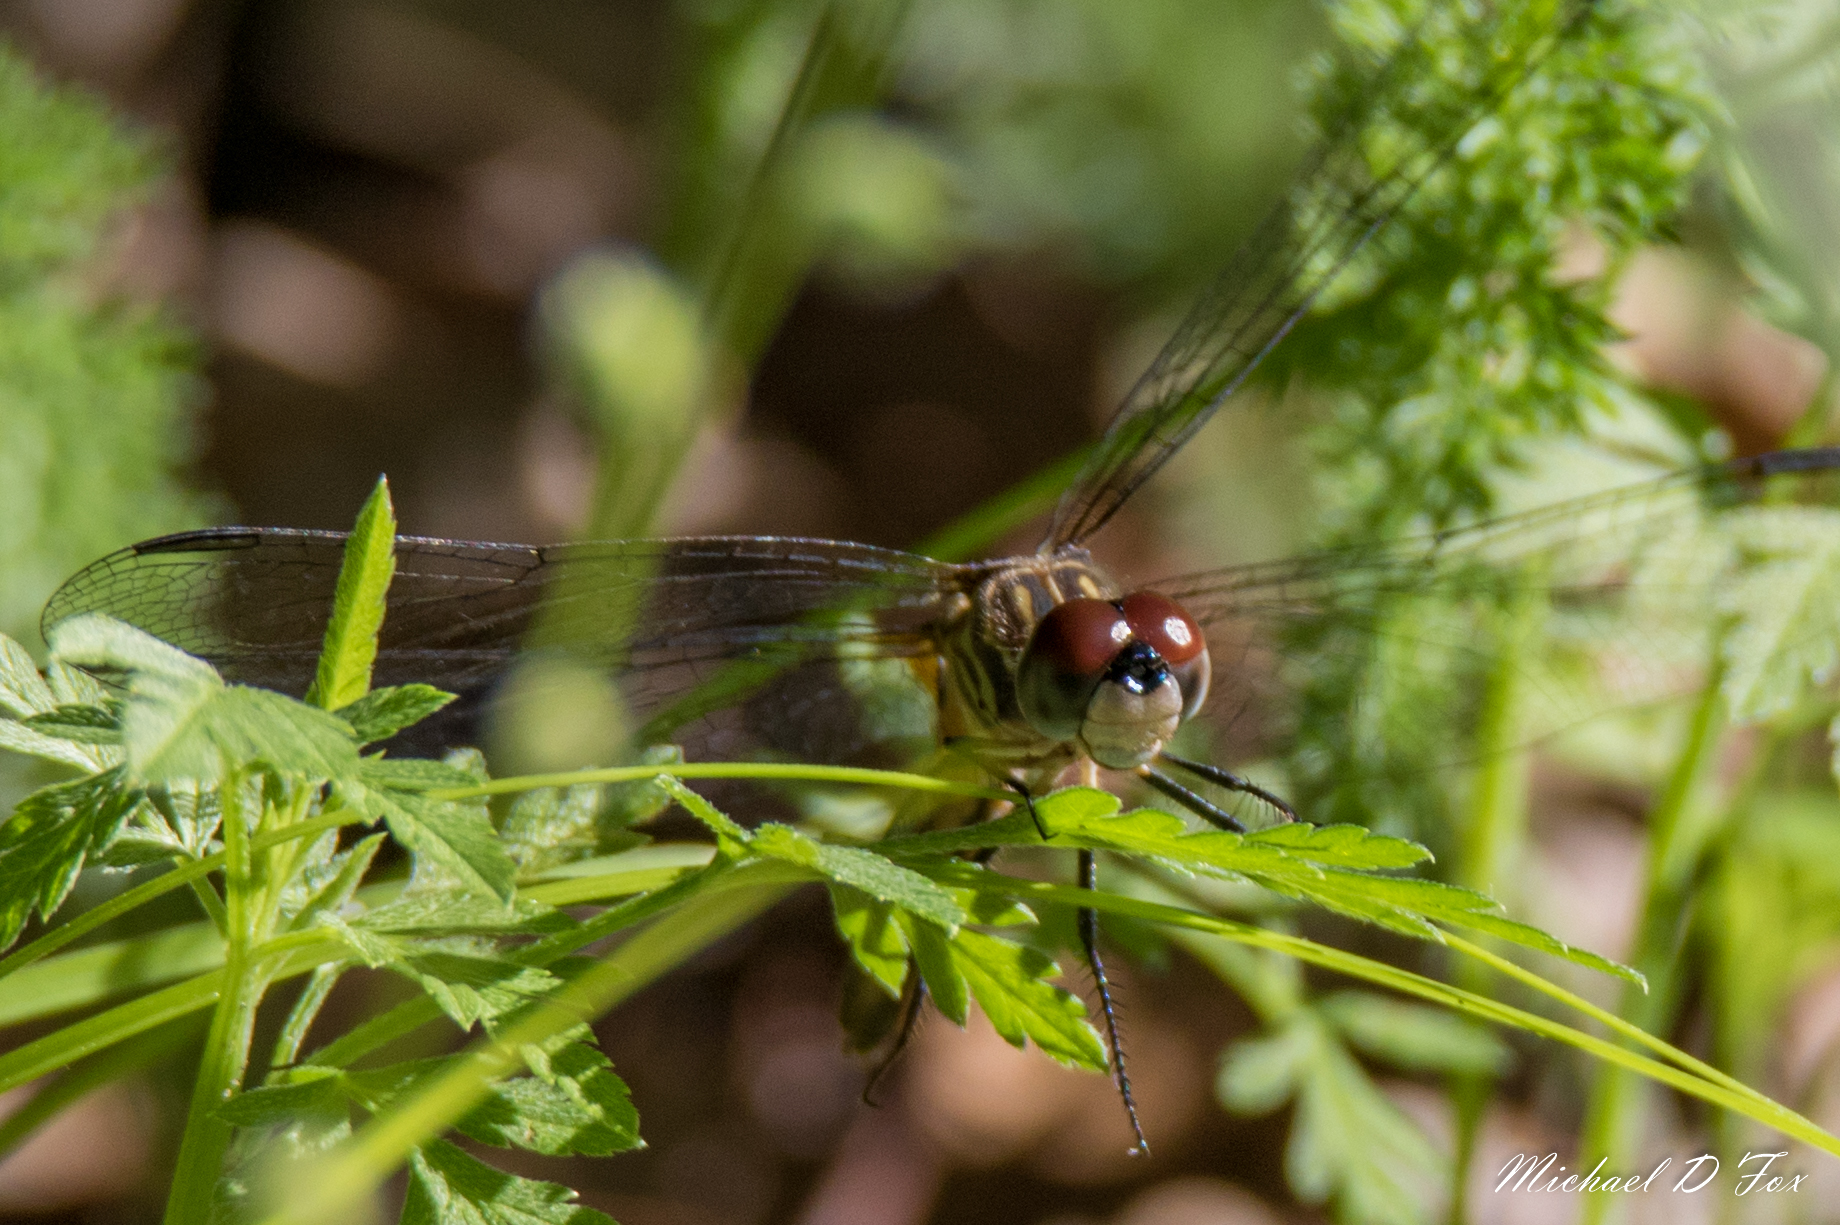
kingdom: Animalia
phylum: Arthropoda
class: Insecta
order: Odonata
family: Libellulidae
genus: Pachydiplax
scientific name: Pachydiplax longipennis
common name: Blue dasher
